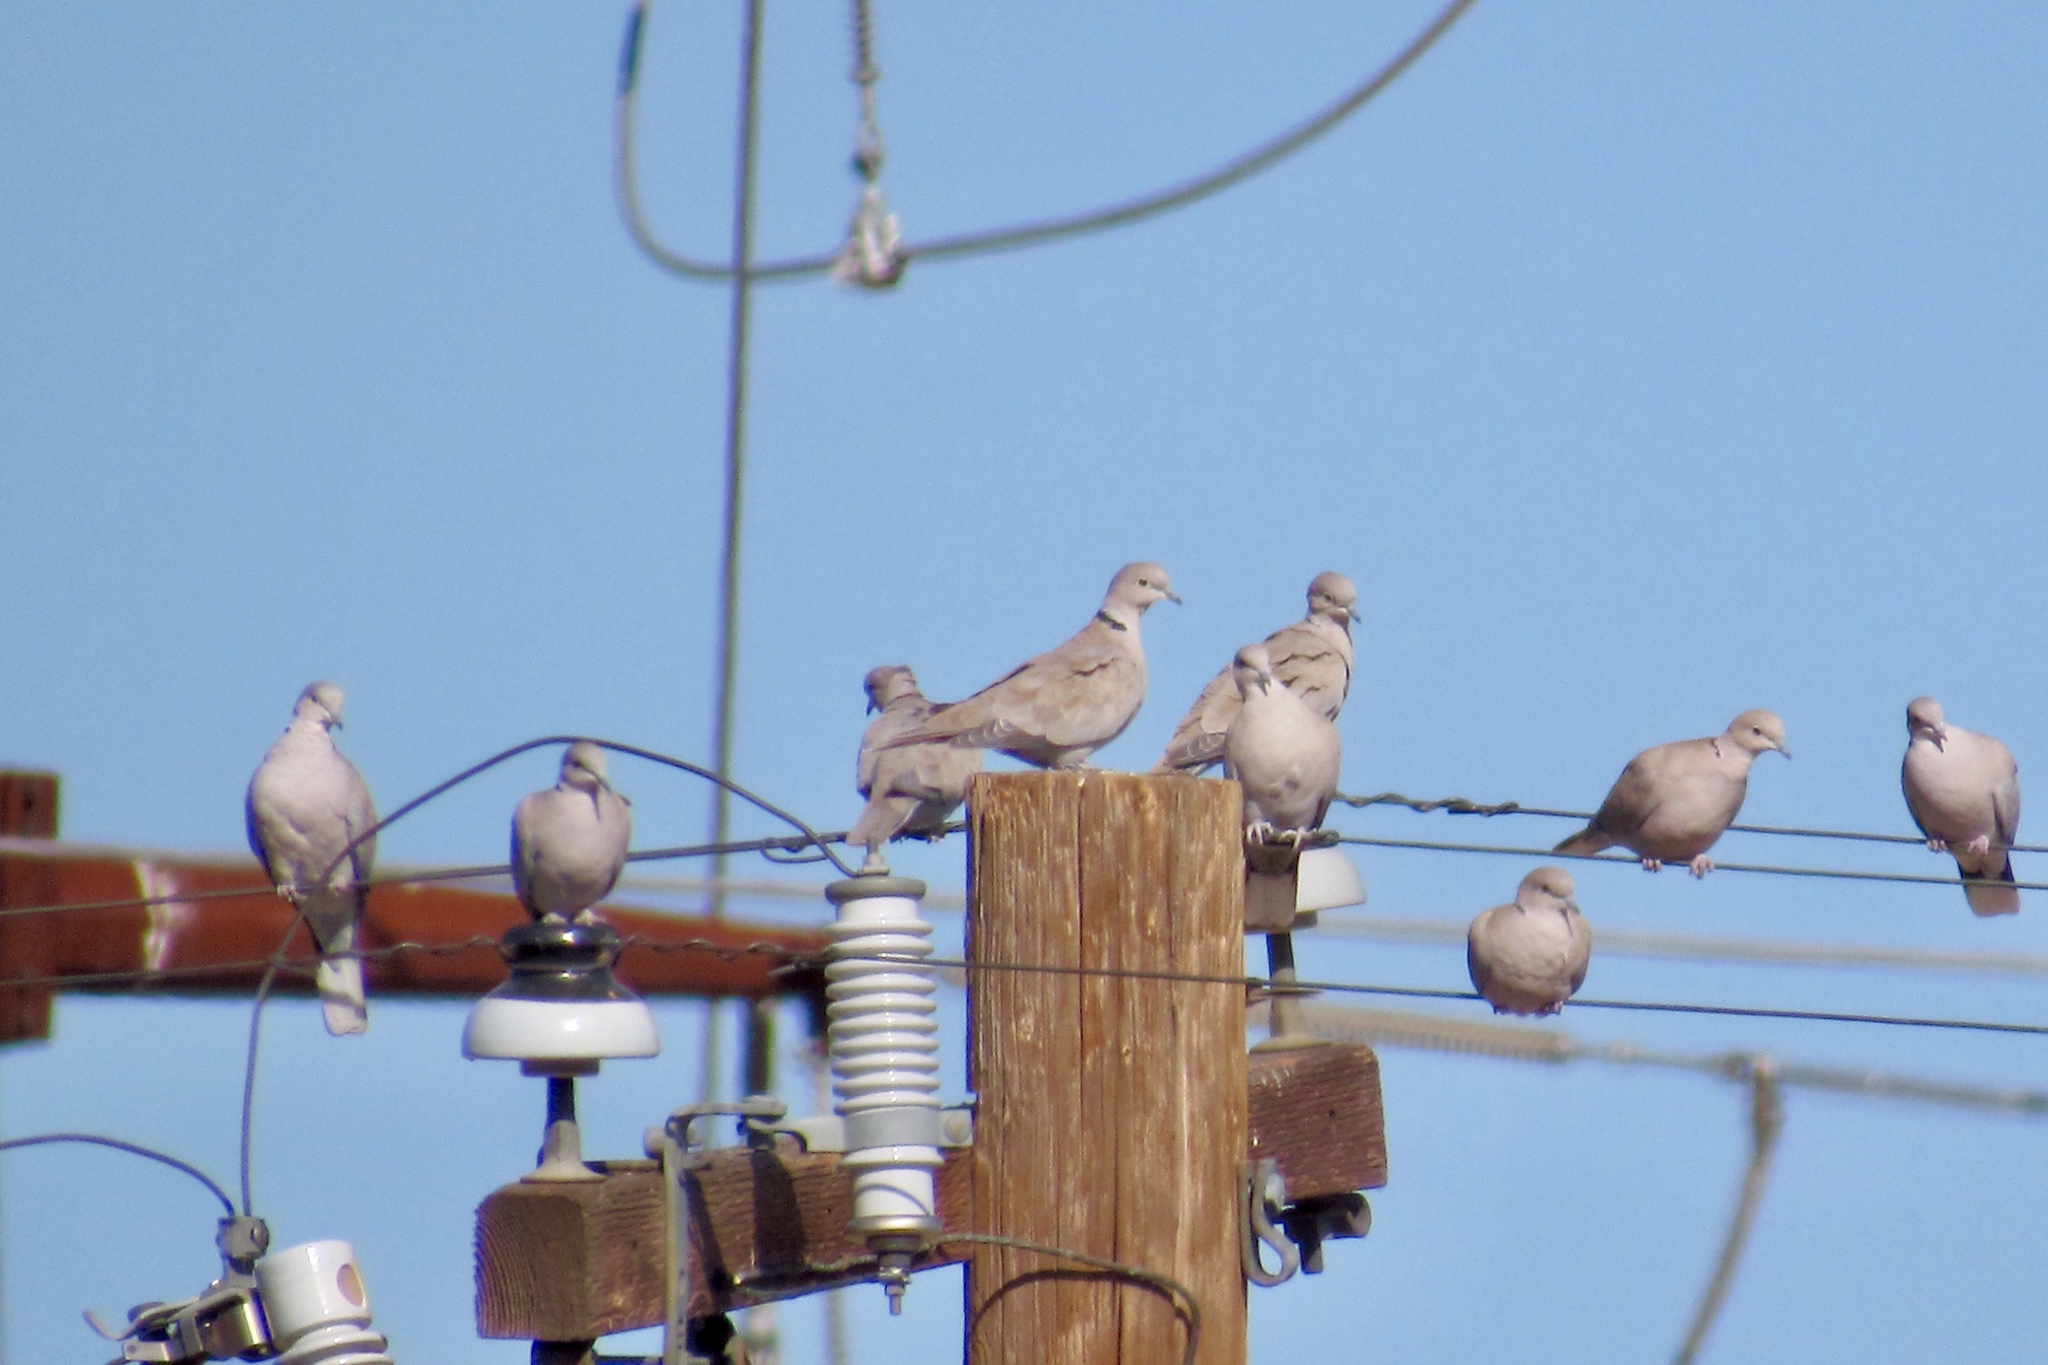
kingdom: Animalia
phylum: Chordata
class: Aves
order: Columbiformes
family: Columbidae
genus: Streptopelia
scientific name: Streptopelia decaocto
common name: Eurasian collared dove
